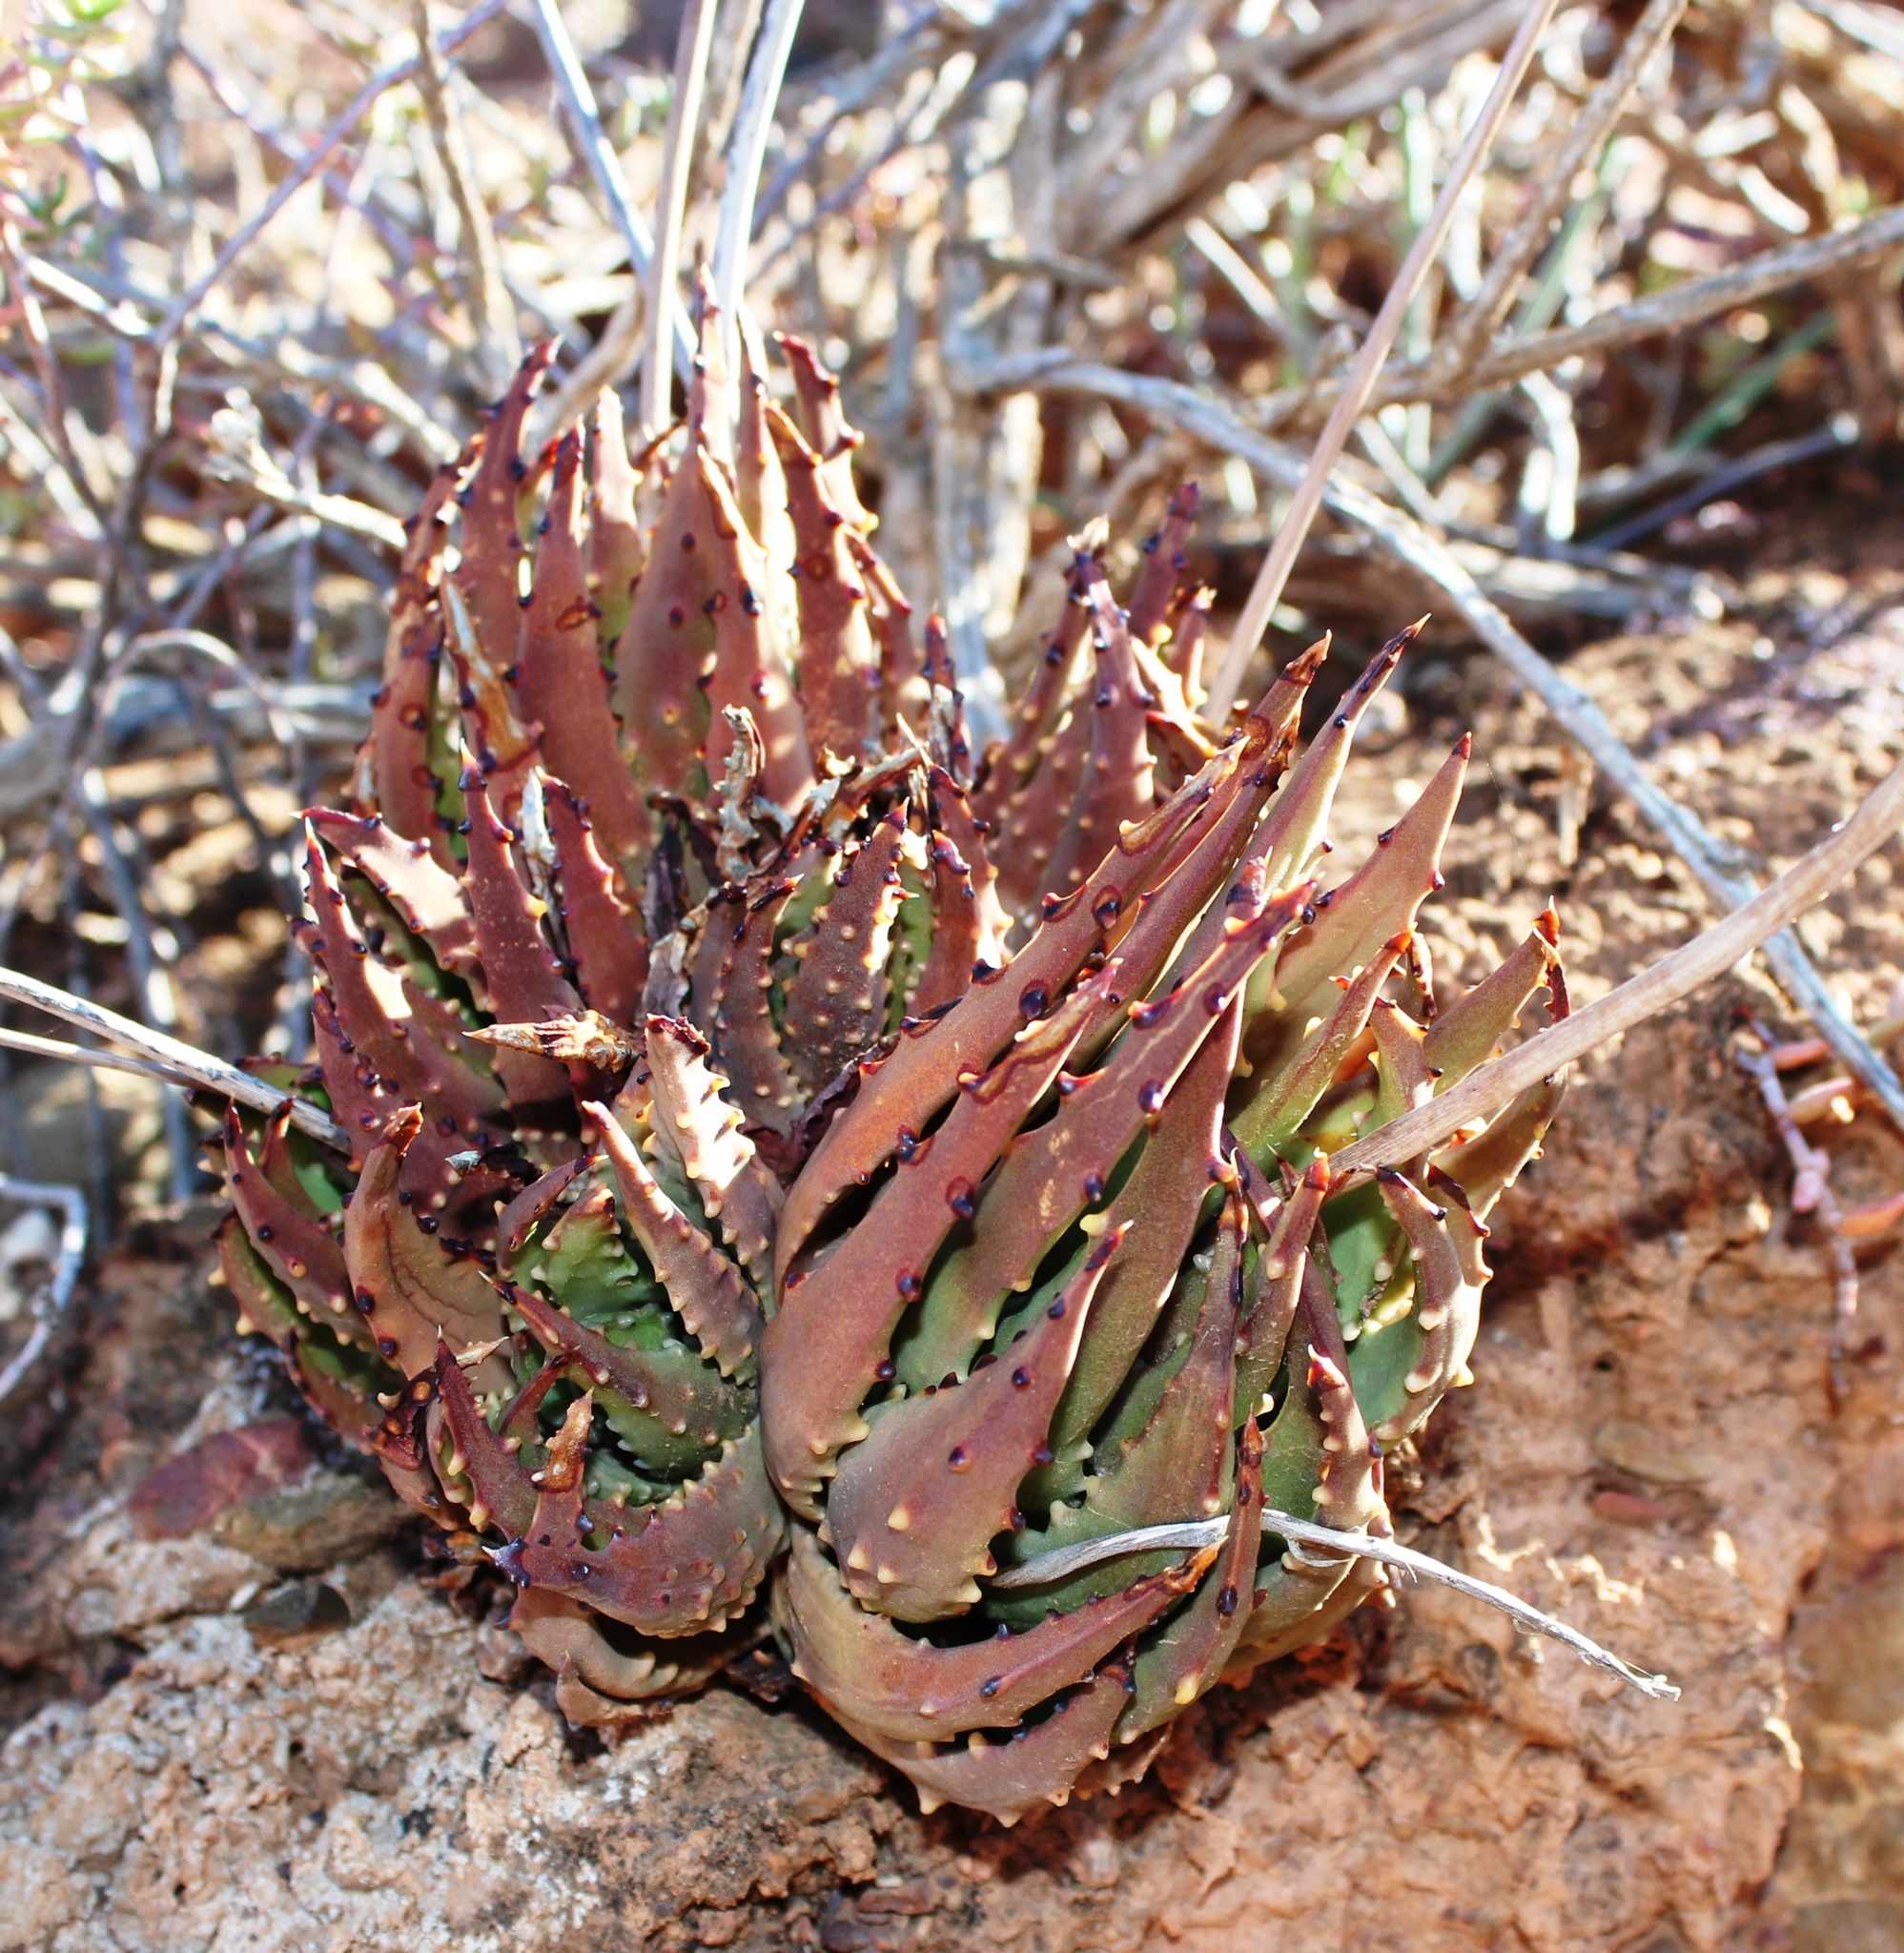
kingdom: Plantae
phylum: Tracheophyta
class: Liliopsida
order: Asparagales
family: Asphodelaceae
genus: Tulista
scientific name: Tulista pumila
